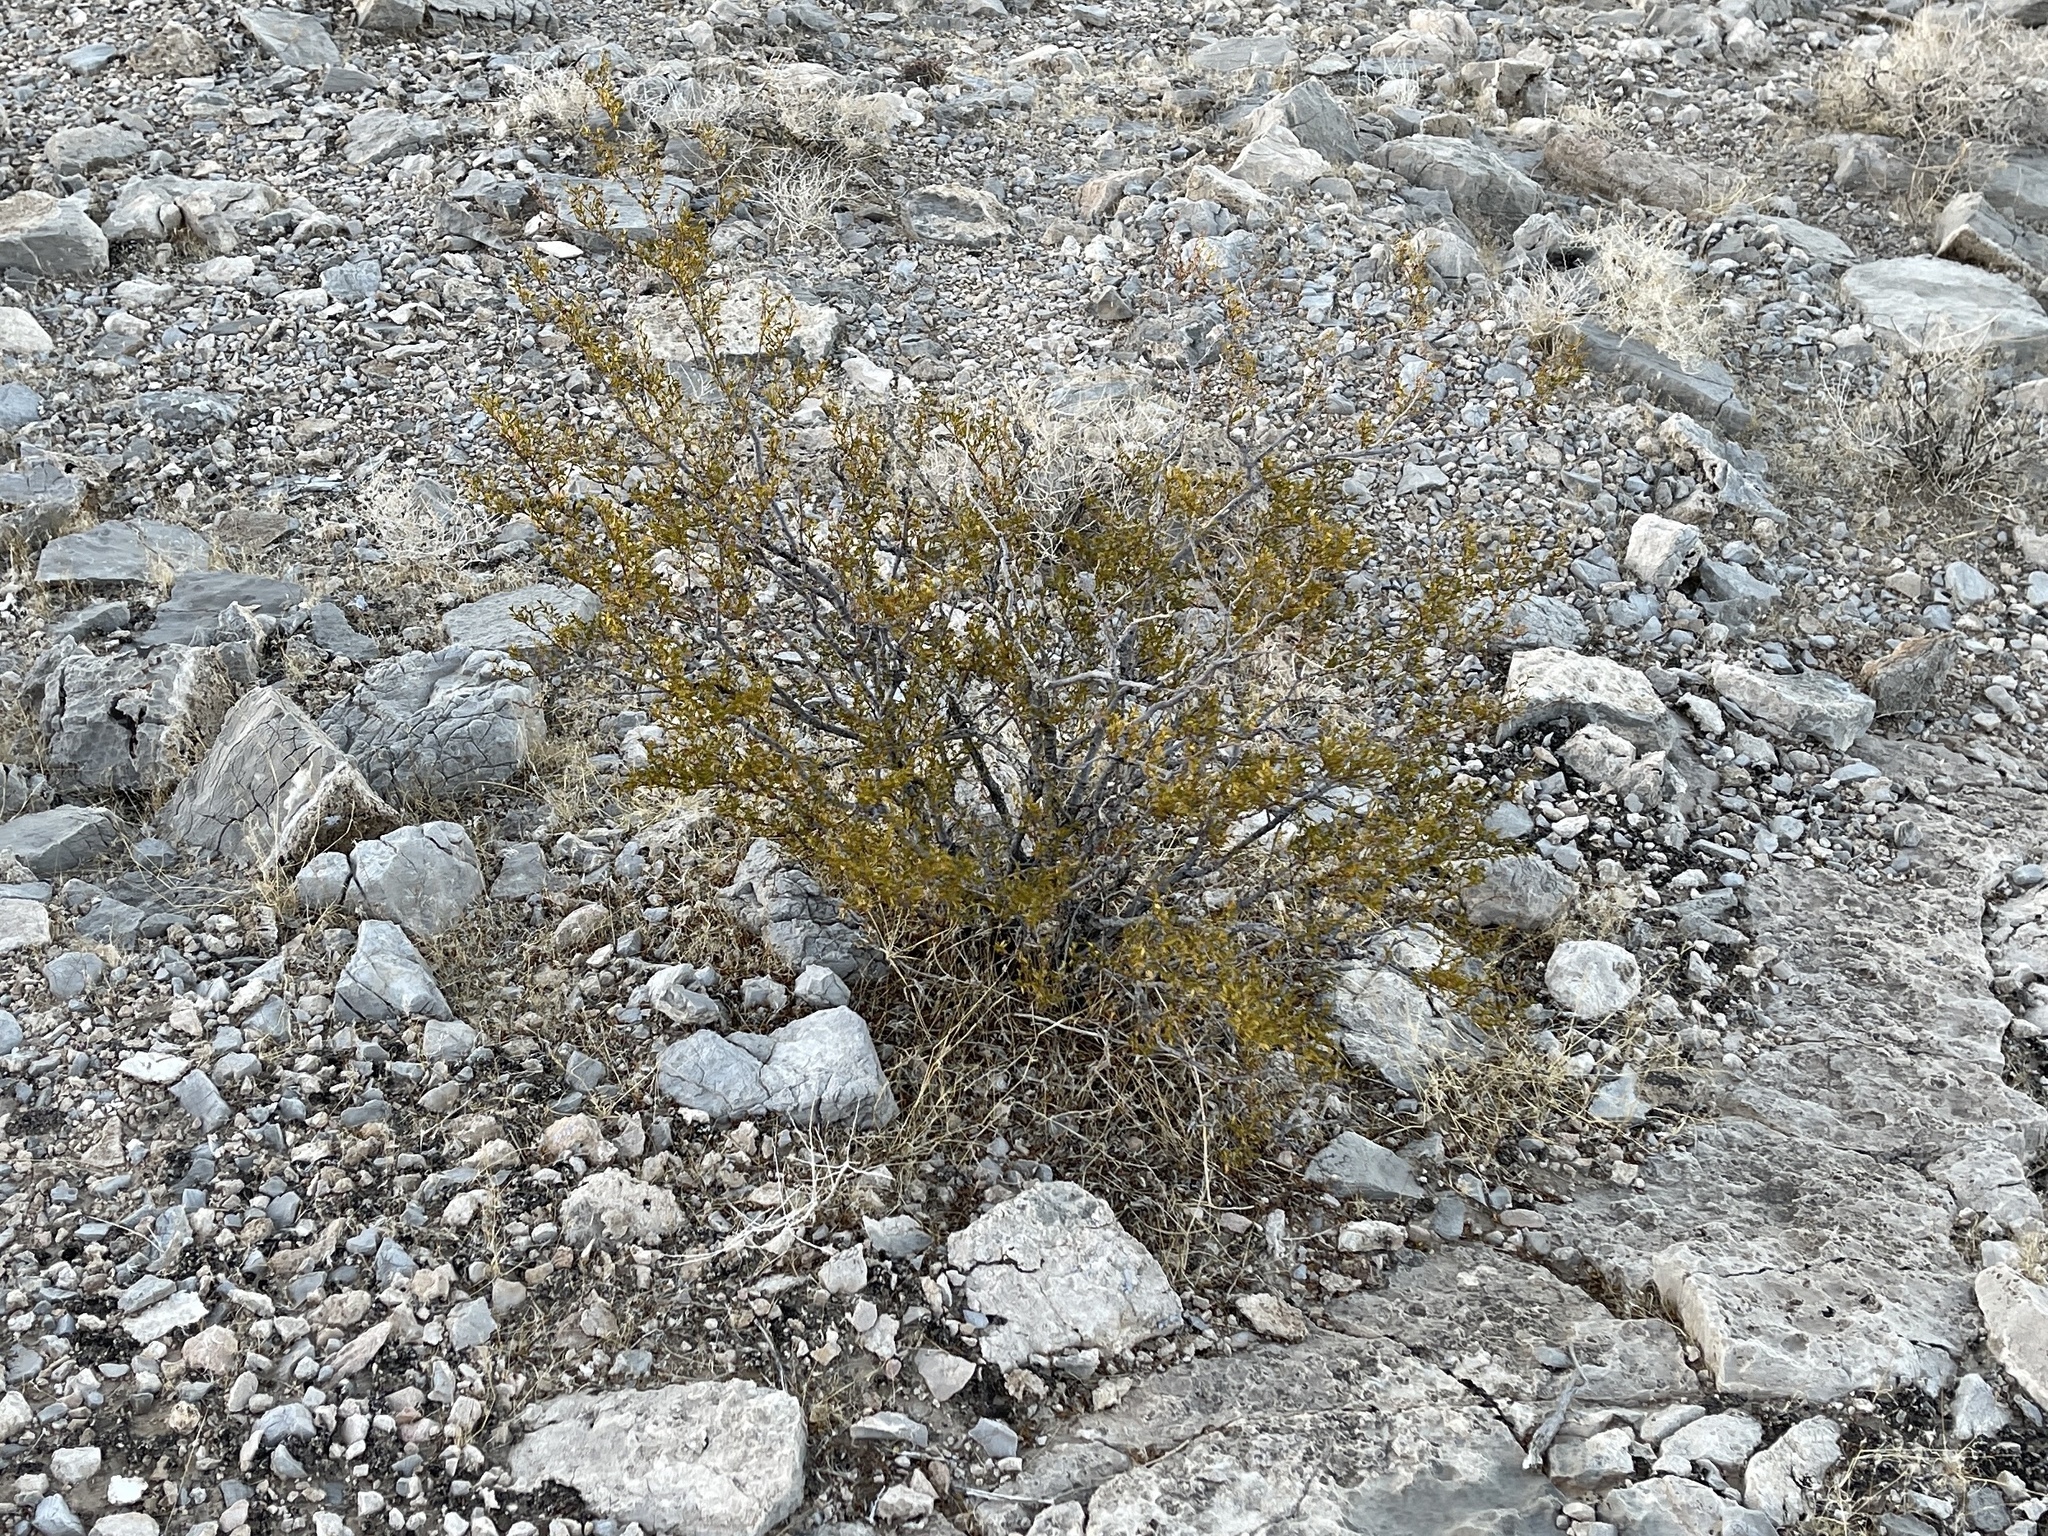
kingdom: Plantae
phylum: Tracheophyta
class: Magnoliopsida
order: Zygophyllales
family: Zygophyllaceae
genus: Larrea
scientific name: Larrea tridentata
